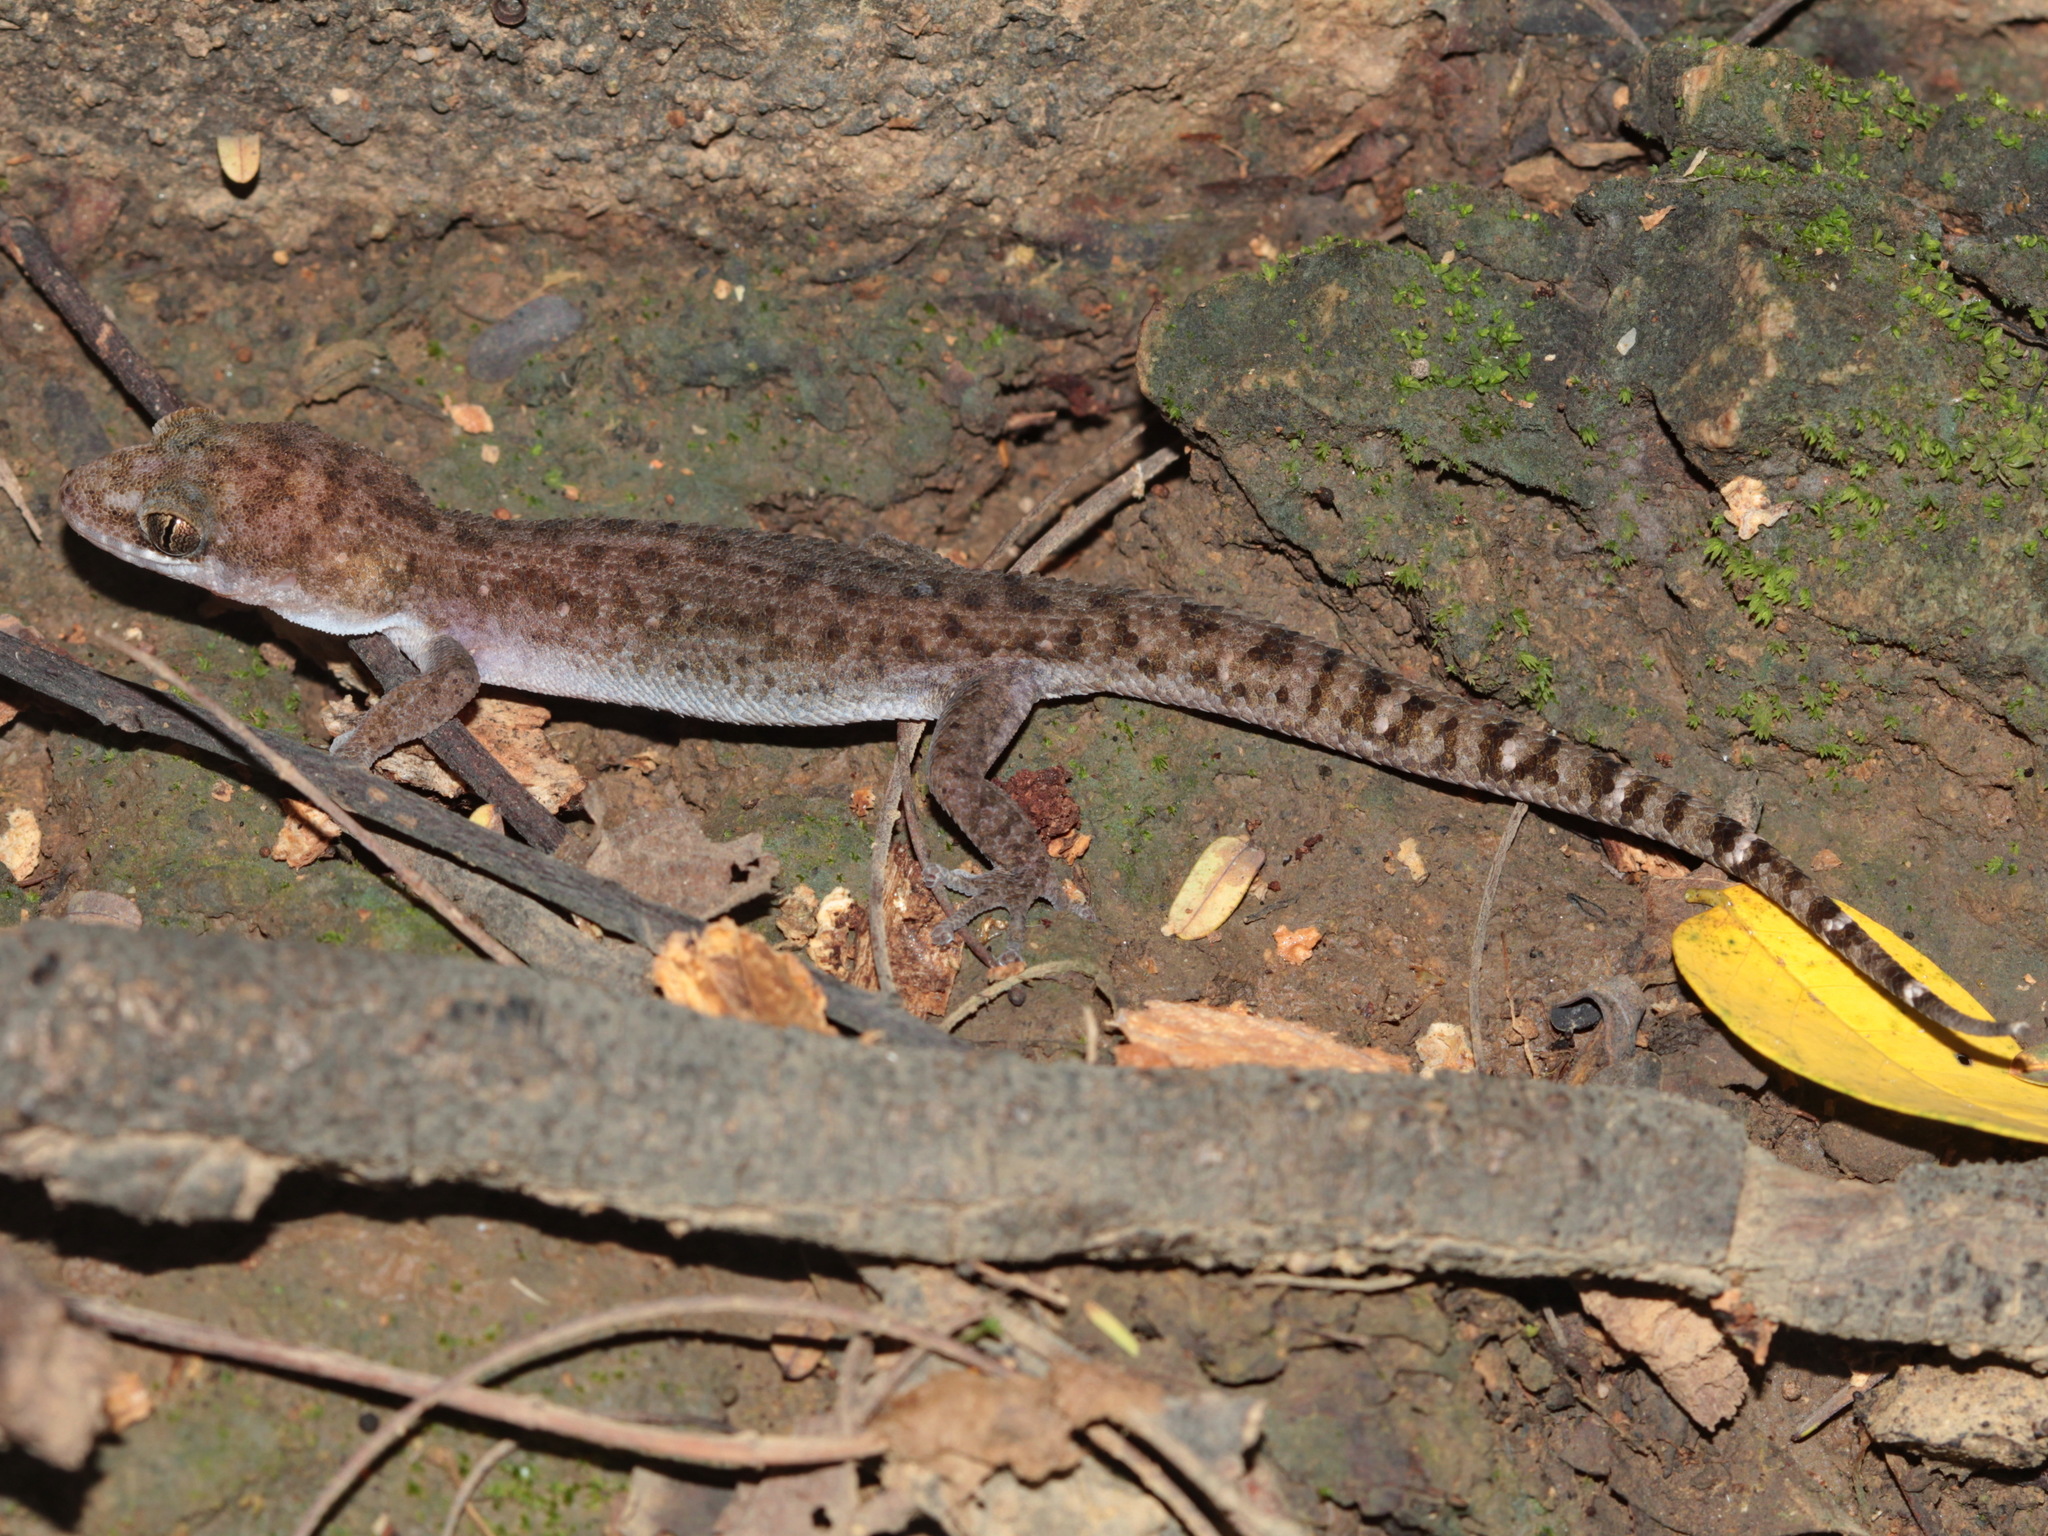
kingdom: Animalia
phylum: Chordata
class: Squamata
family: Gekkonidae
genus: Dixonius
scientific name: Dixonius siamensis
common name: Siamese leaf-toed gecko
